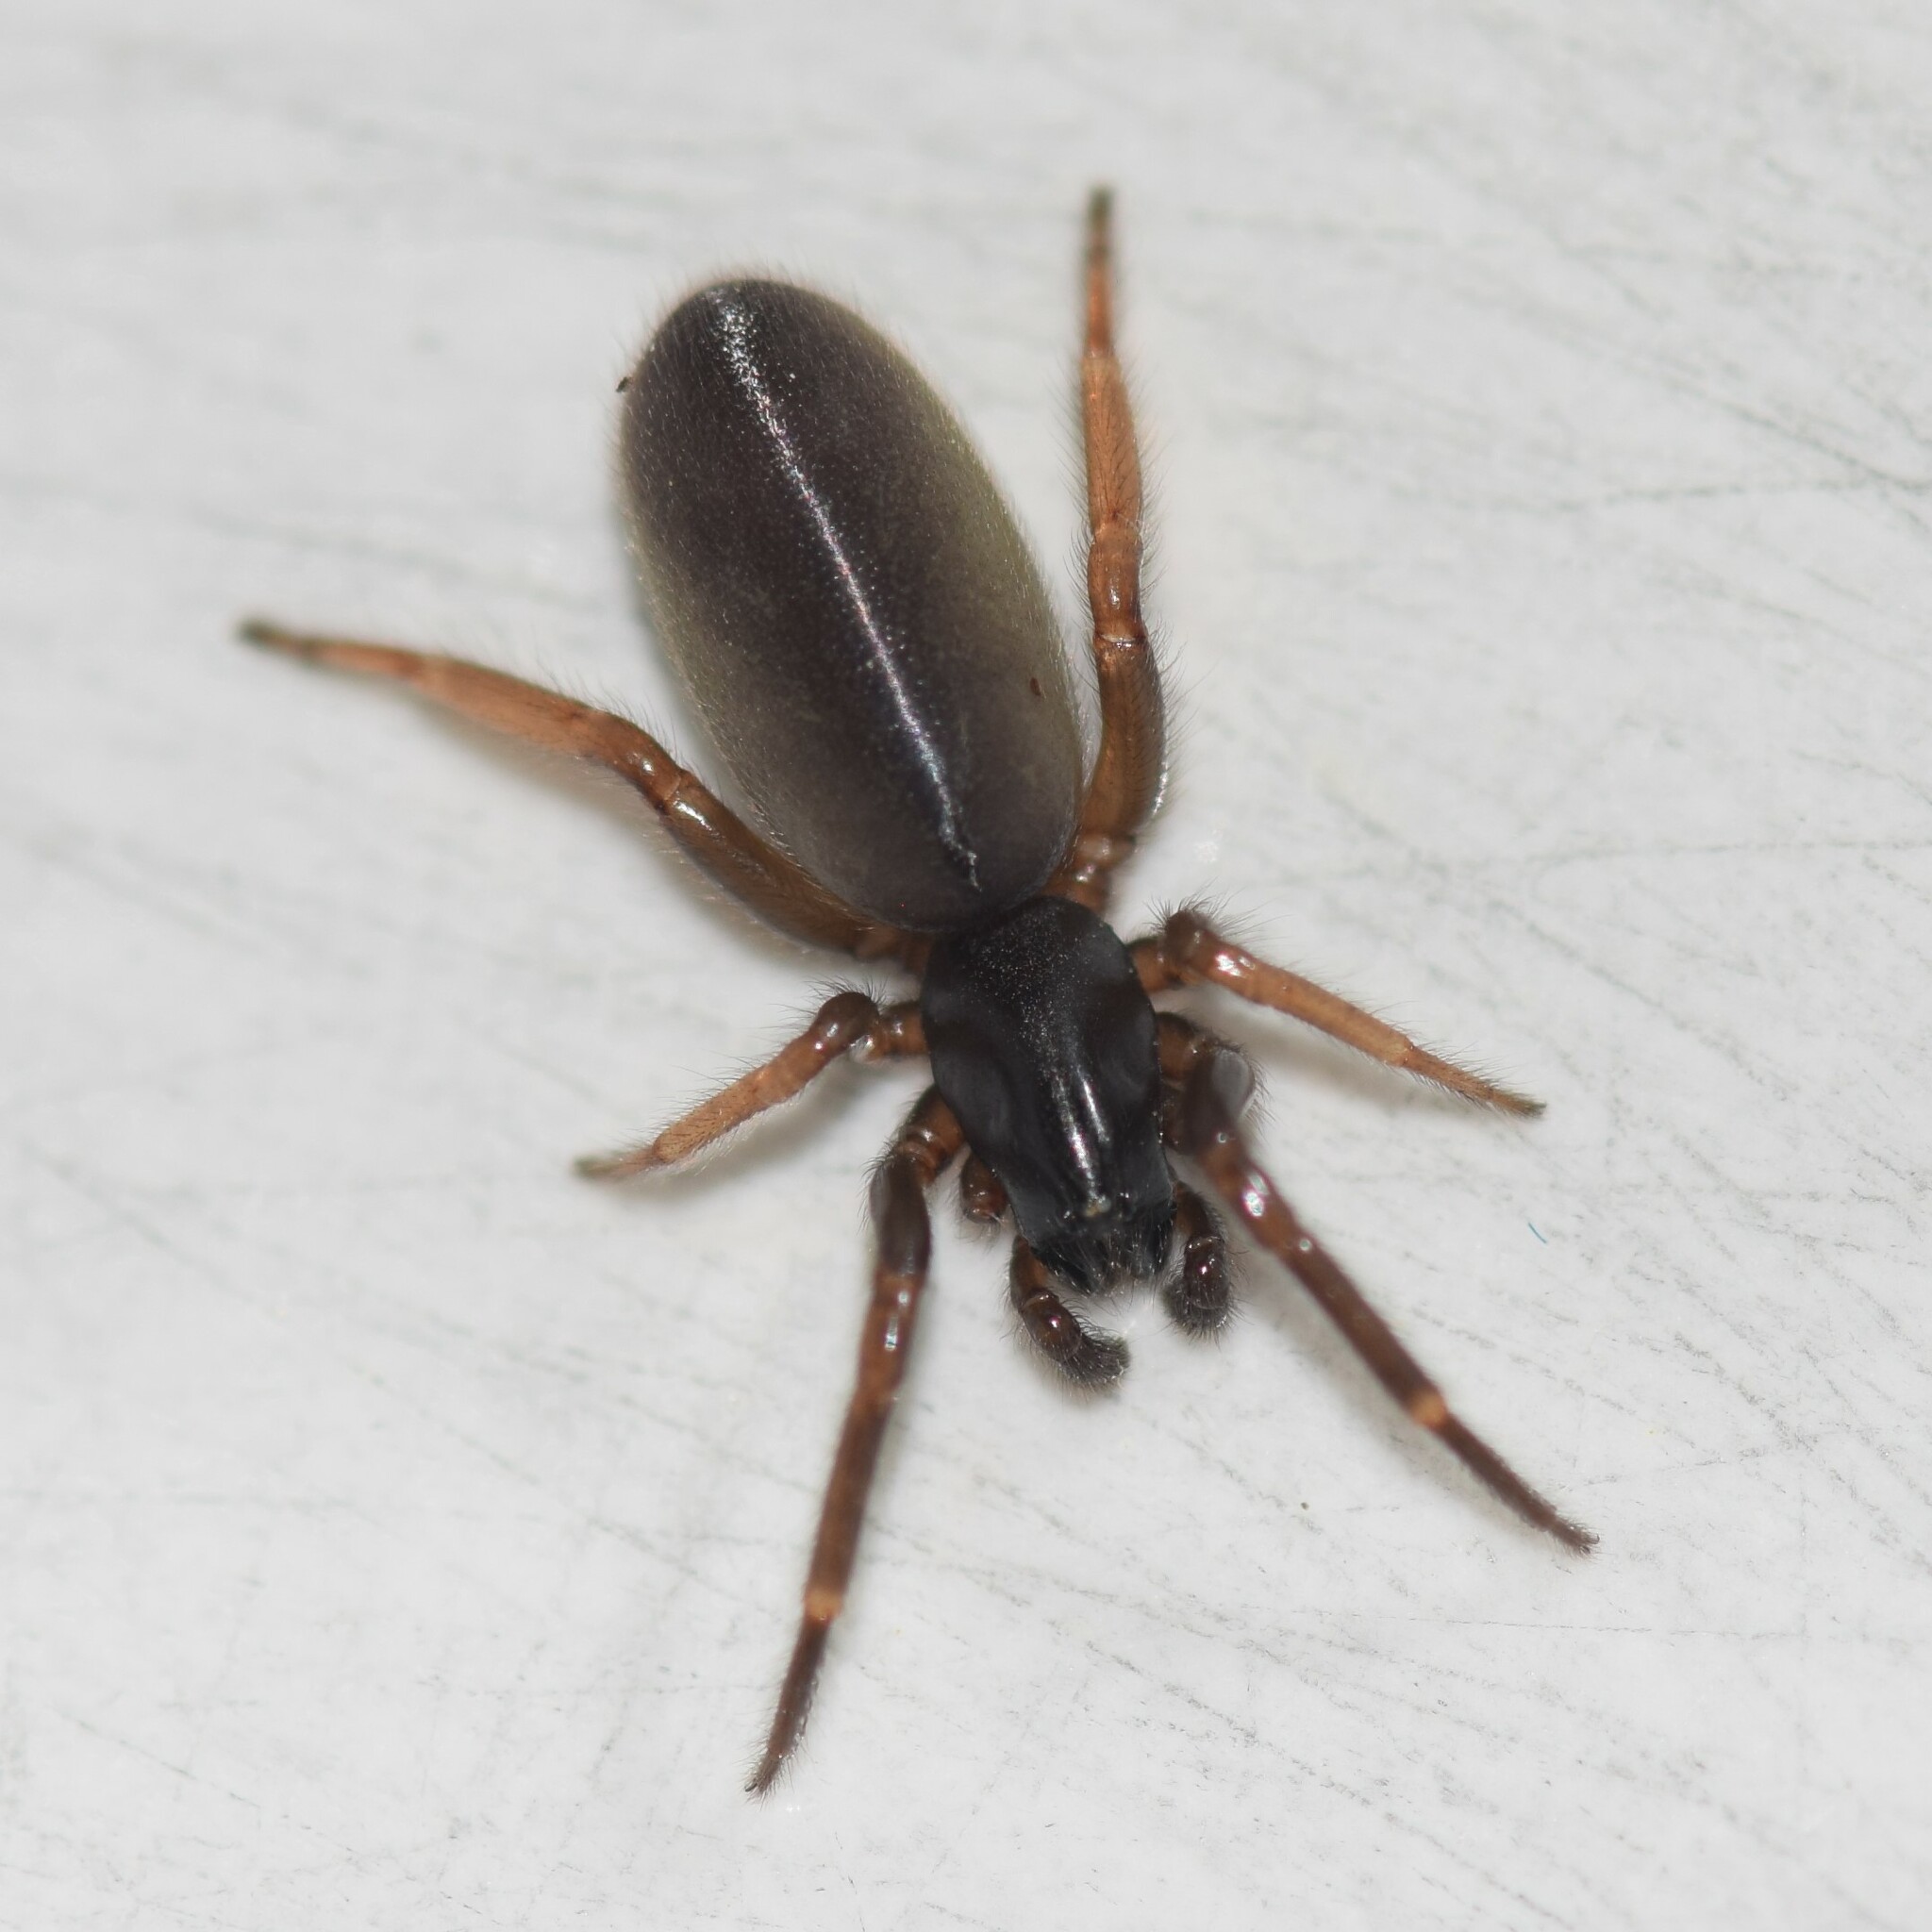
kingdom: Animalia
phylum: Arthropoda
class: Arachnida
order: Araneae
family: Segestriidae
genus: Ariadna
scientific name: Ariadna bicolor
